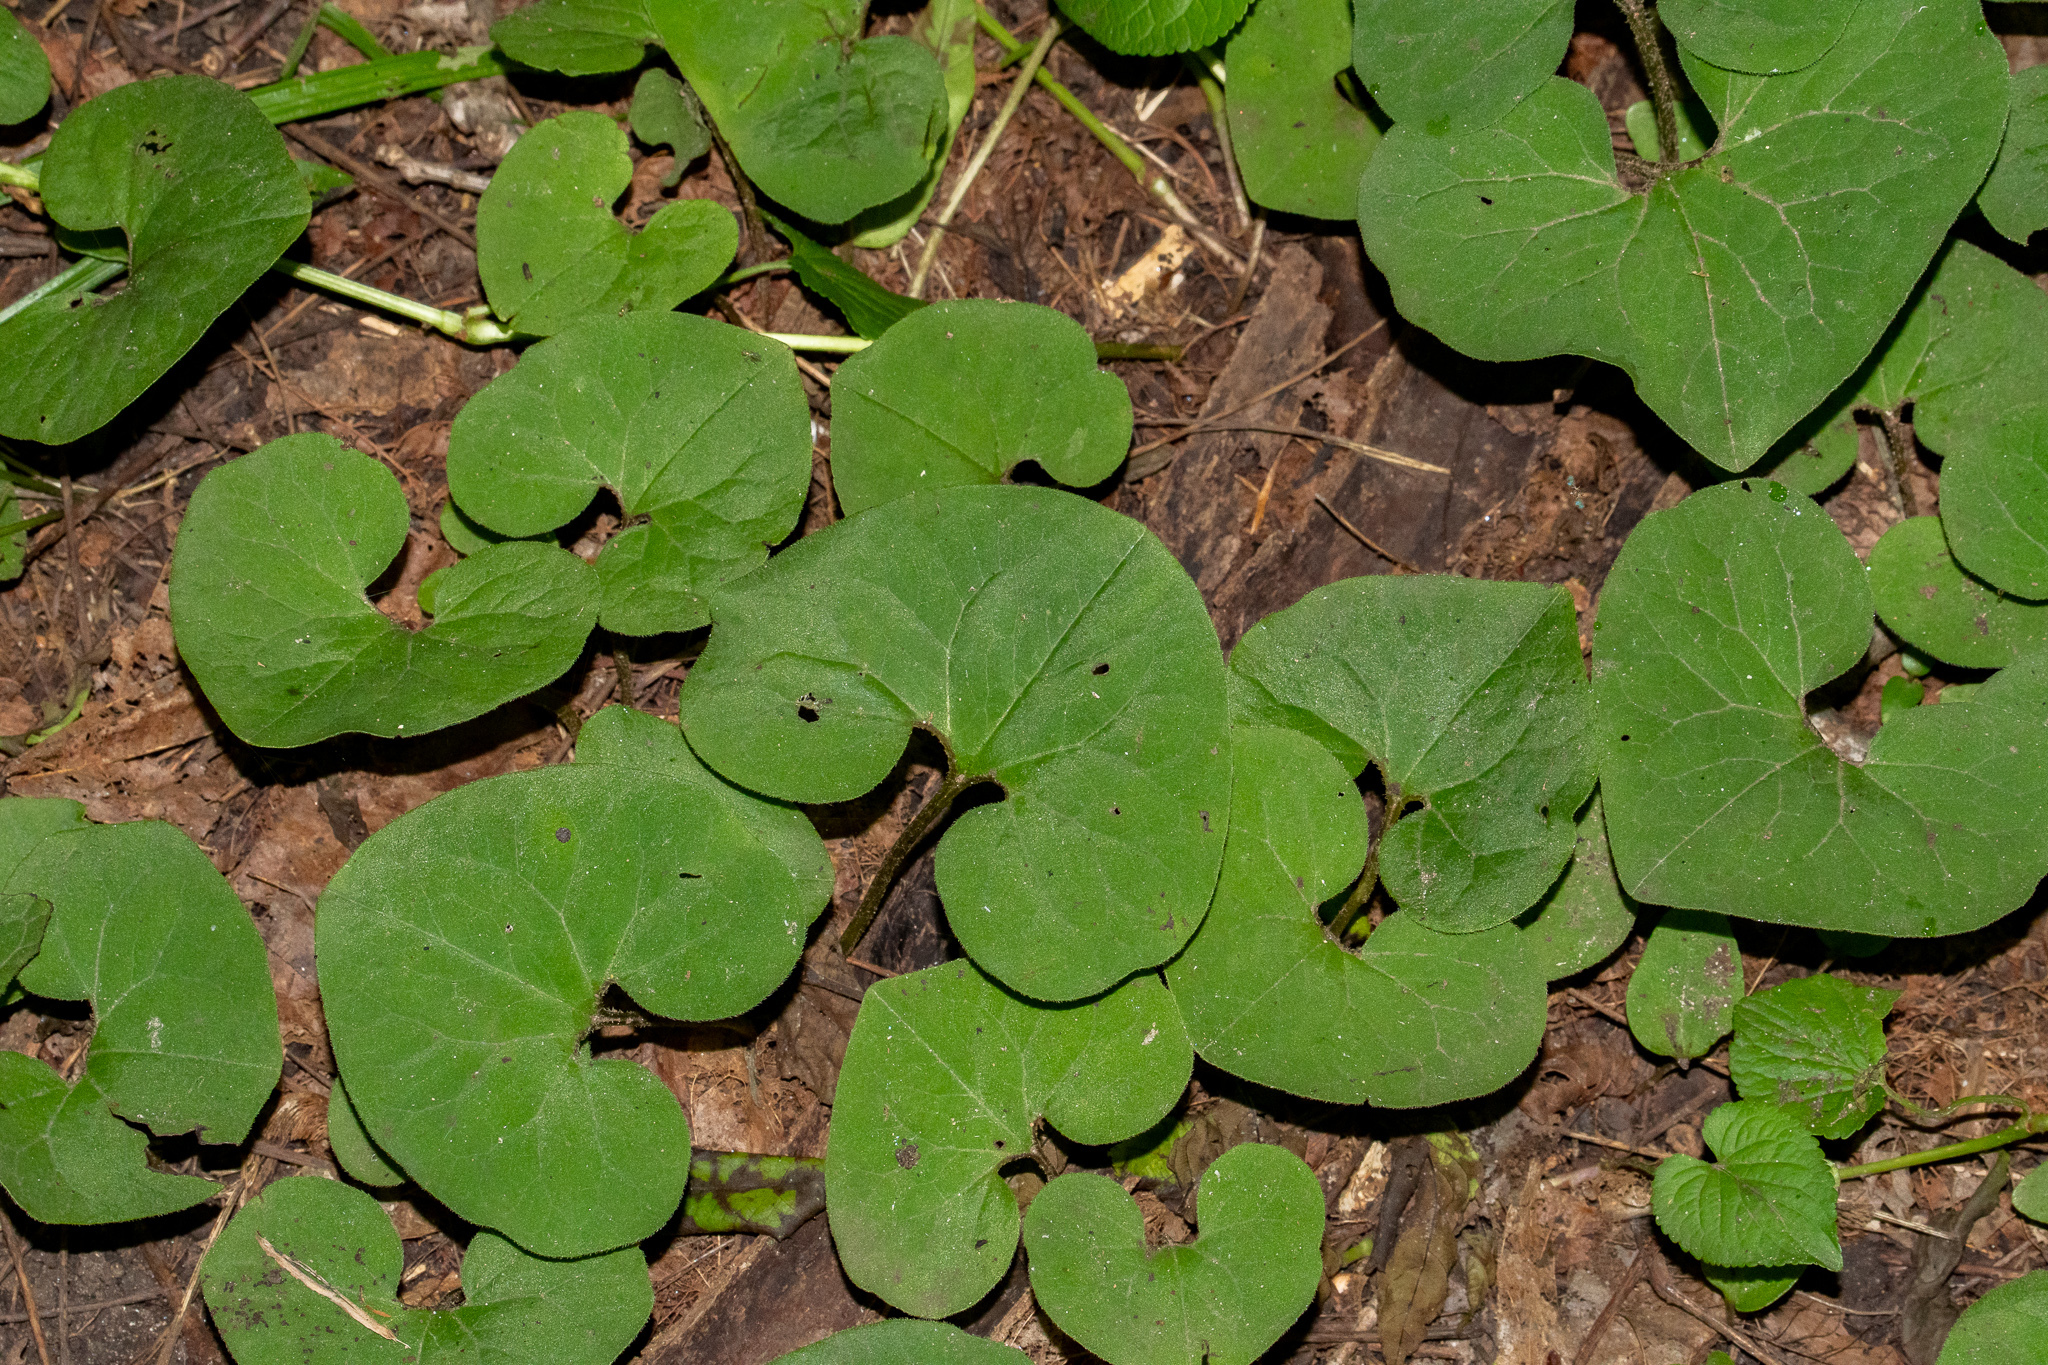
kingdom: Plantae
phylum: Tracheophyta
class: Magnoliopsida
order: Piperales
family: Aristolochiaceae
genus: Asarum
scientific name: Asarum canadense
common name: Wild ginger
